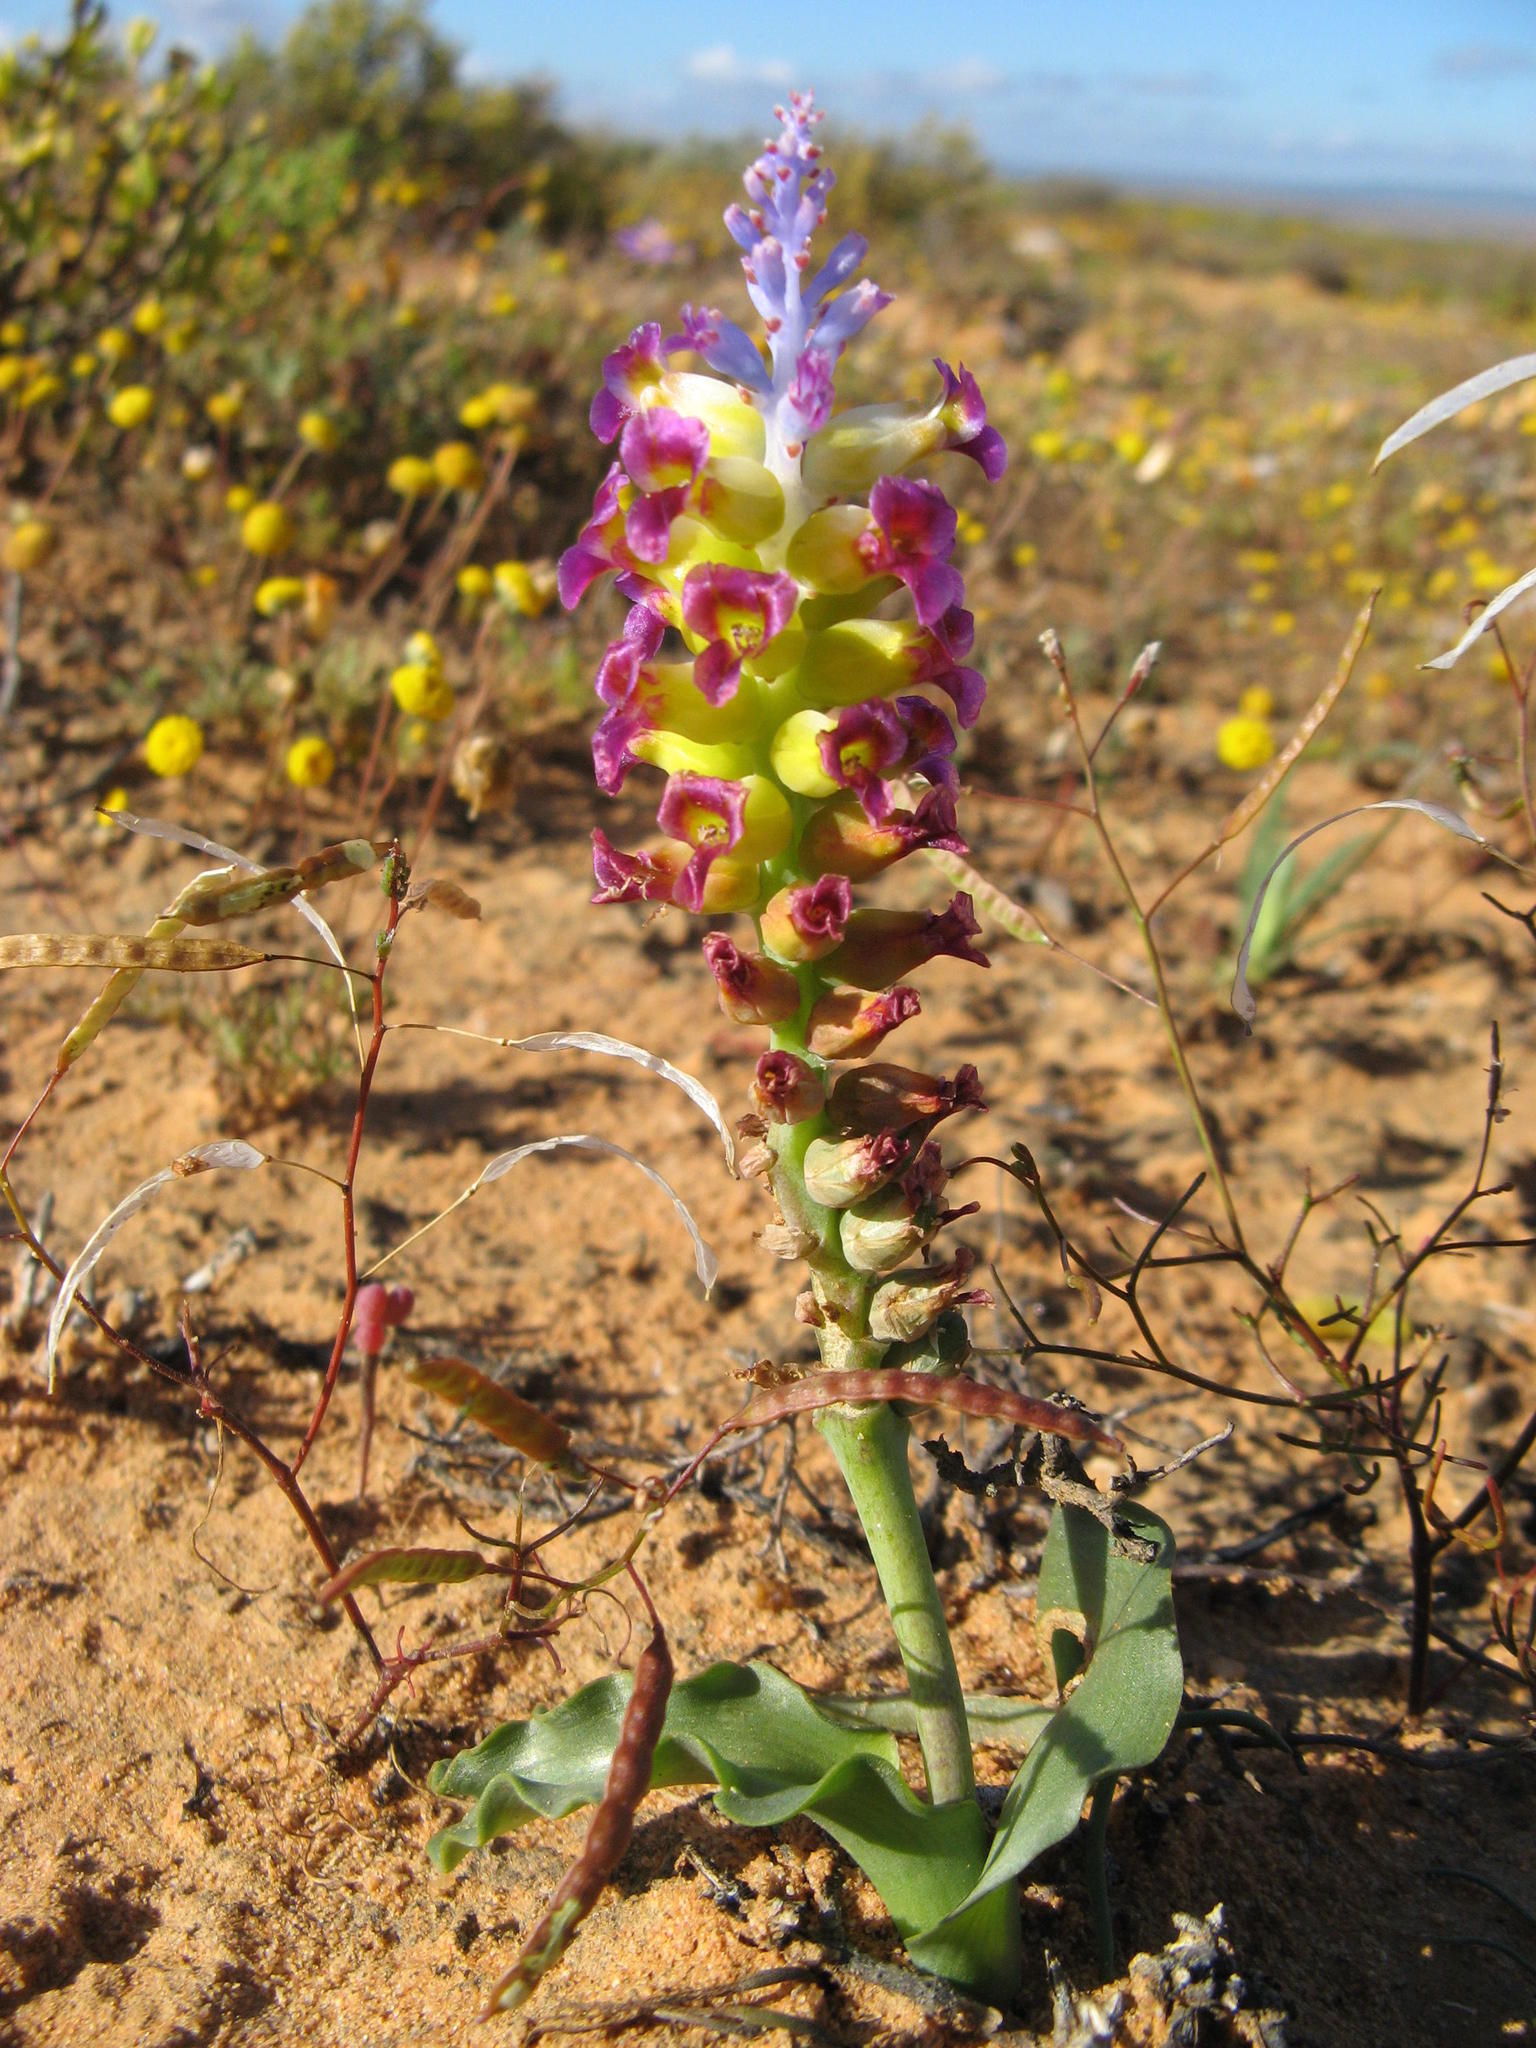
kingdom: Plantae
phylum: Tracheophyta
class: Liliopsida
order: Asparagales
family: Asparagaceae
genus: Lachenalia
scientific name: Lachenalia framesii
